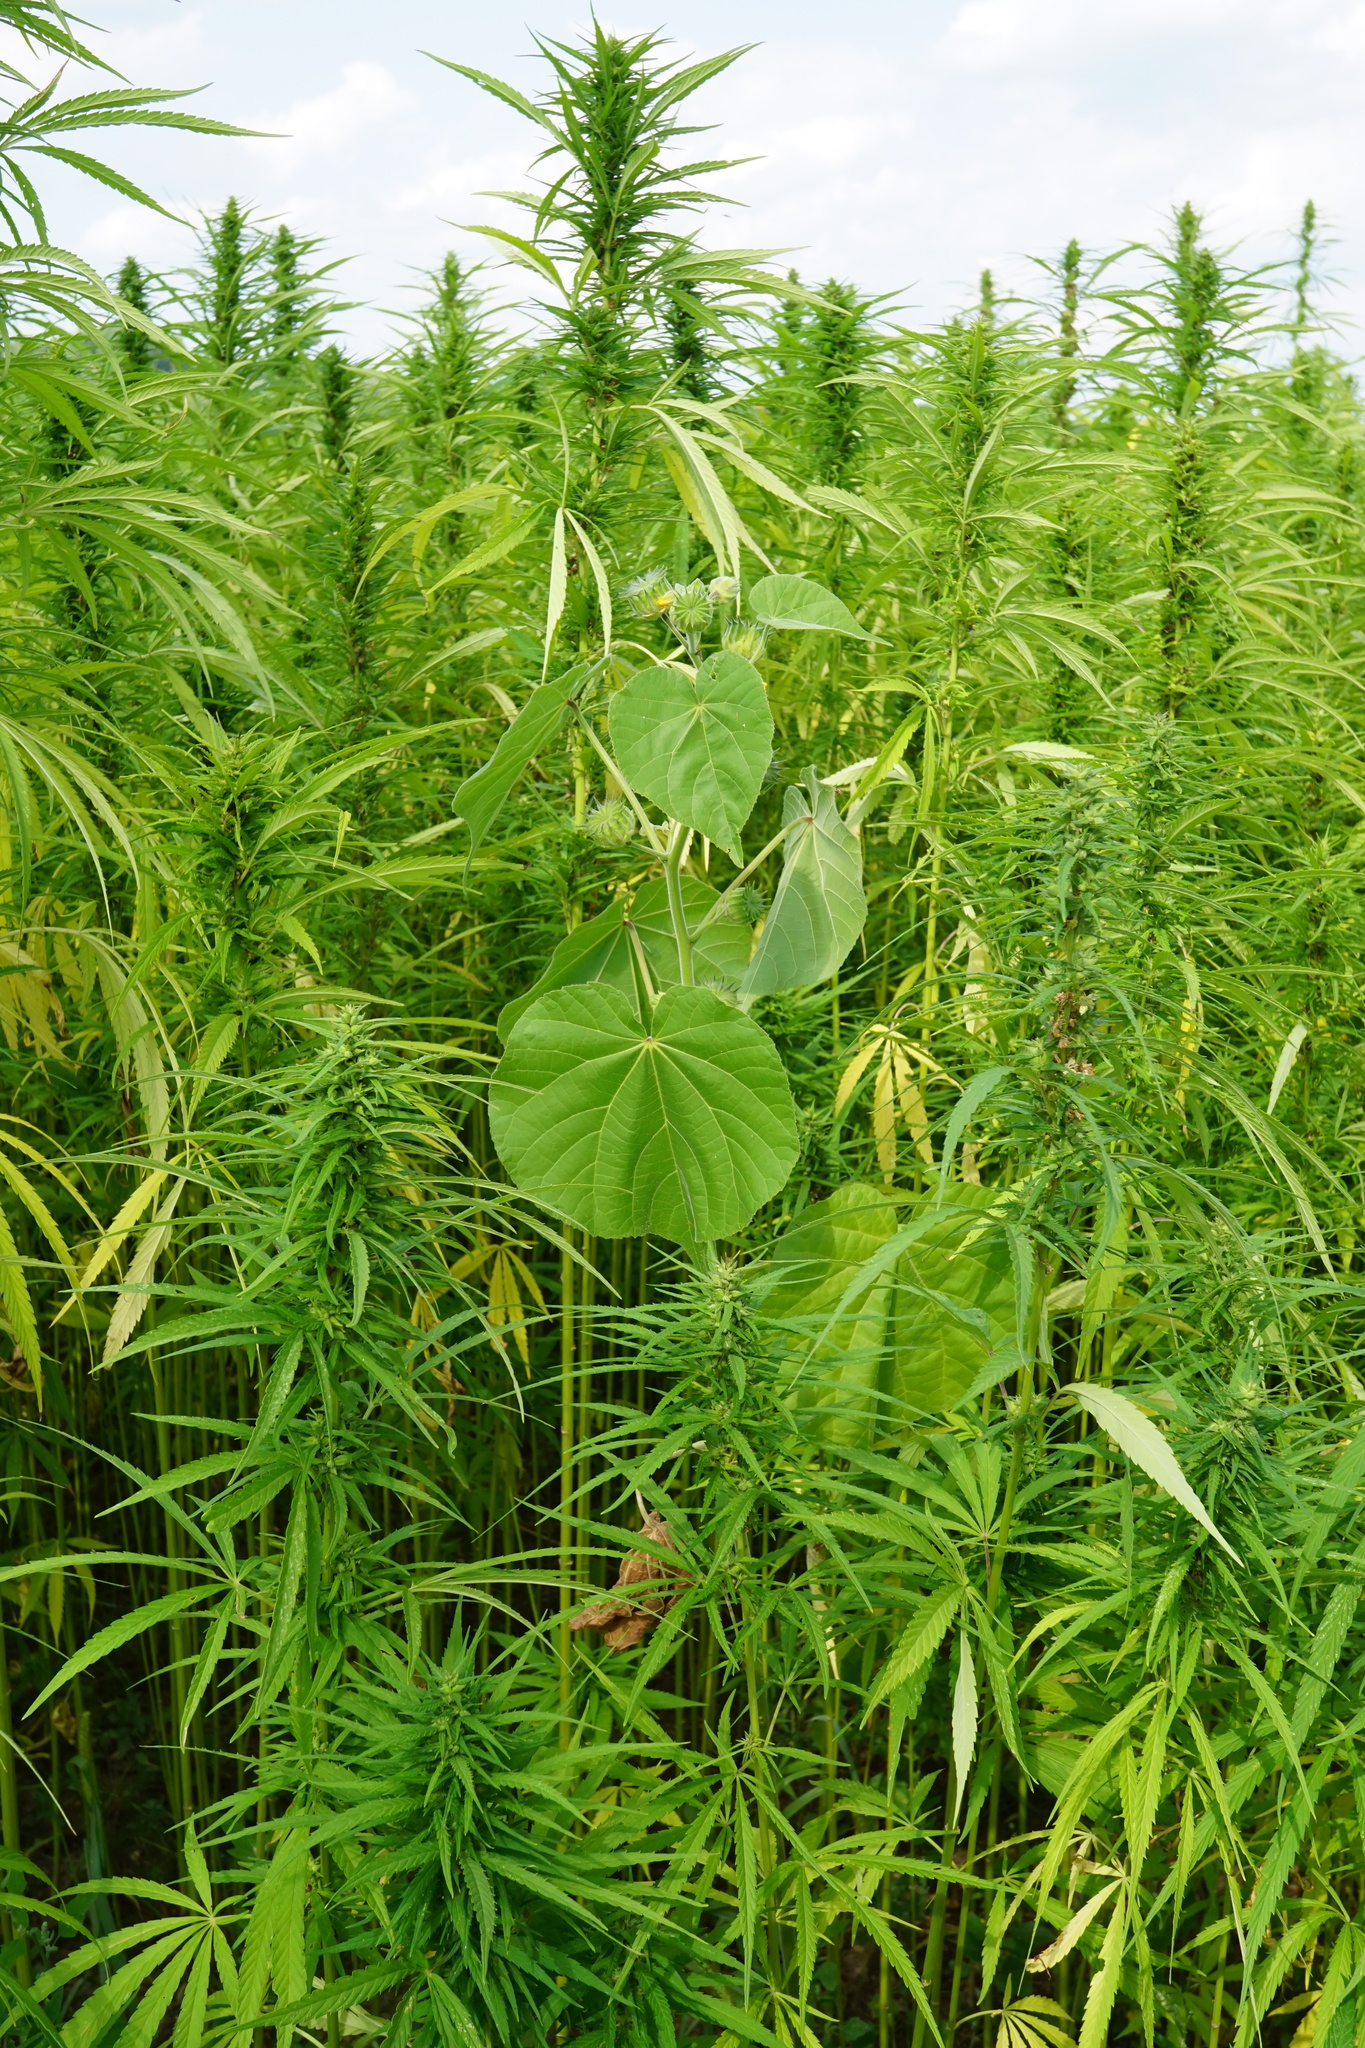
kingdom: Plantae
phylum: Tracheophyta
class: Magnoliopsida
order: Malvales
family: Malvaceae
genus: Abutilon
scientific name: Abutilon theophrasti
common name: Velvetleaf
